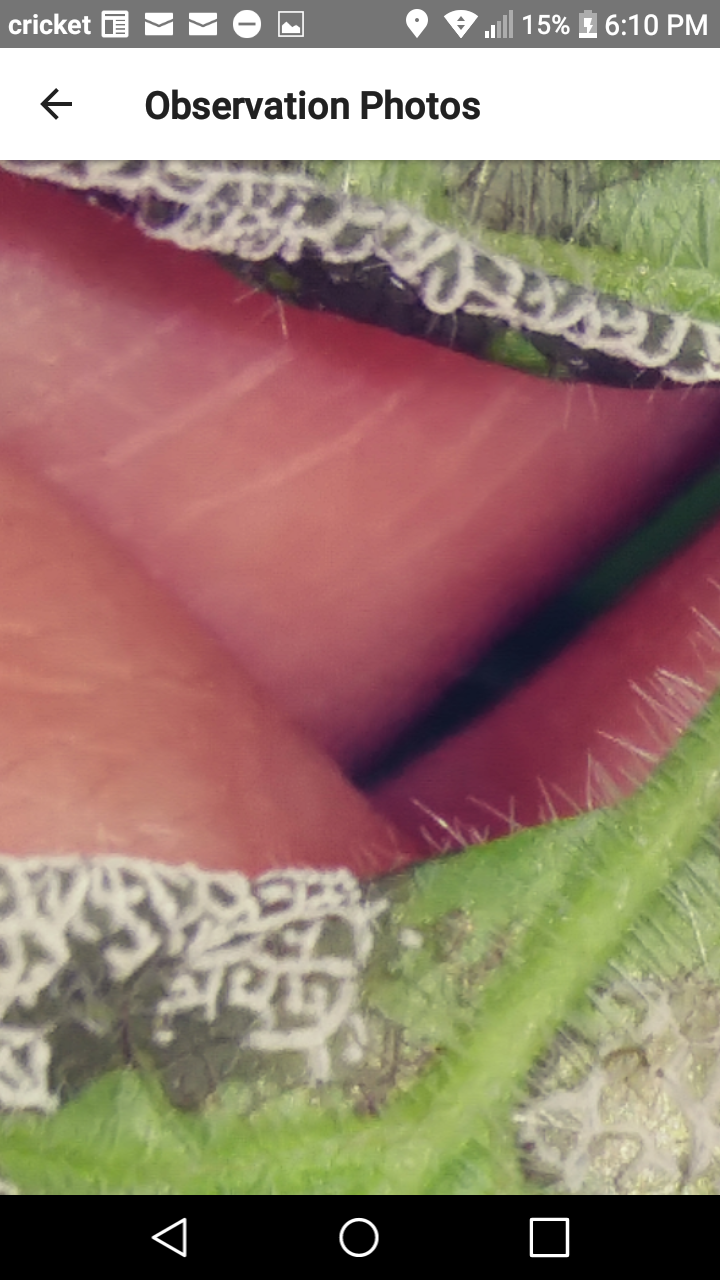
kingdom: Fungi
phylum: Ascomycota
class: Dothideomycetes
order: Mycosphaerellales
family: Mycosphaerellaceae
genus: Ramularia
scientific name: Ramularia
